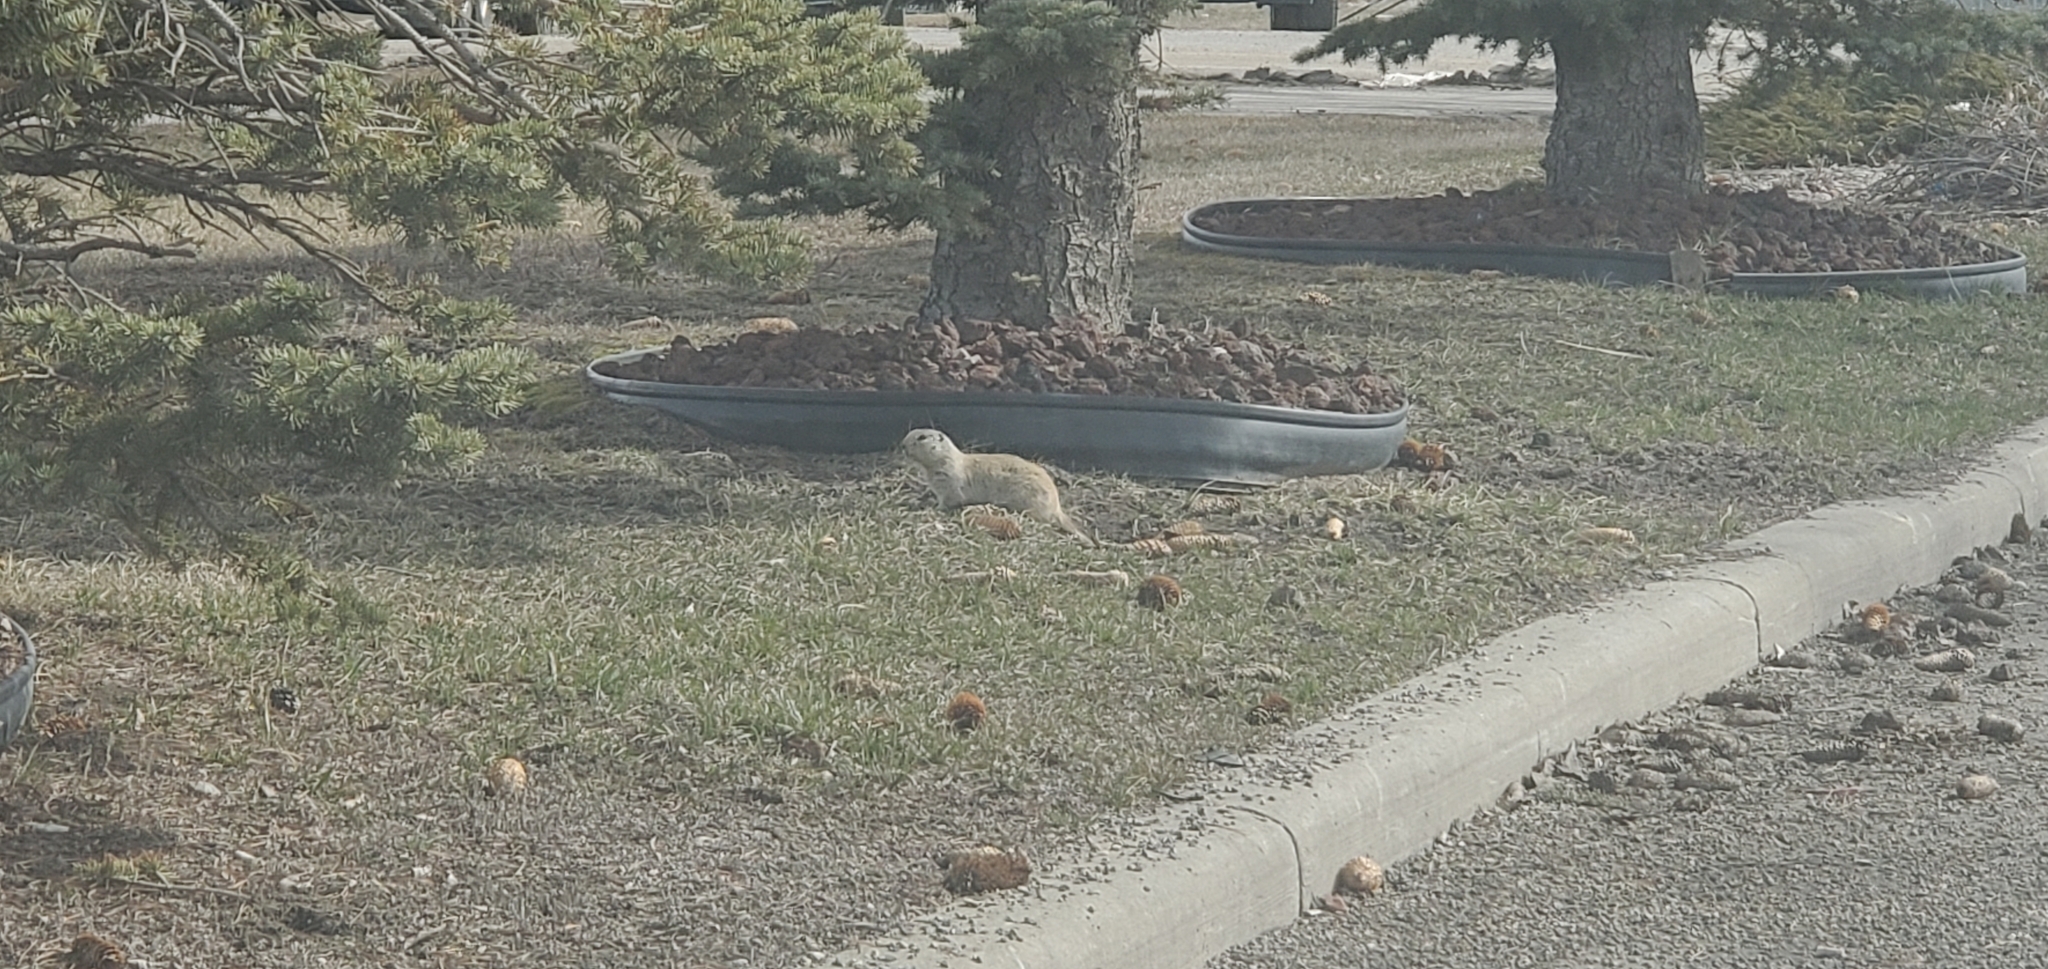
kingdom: Animalia
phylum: Chordata
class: Mammalia
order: Rodentia
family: Sciuridae
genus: Urocitellus
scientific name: Urocitellus richardsonii
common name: Richardson's ground squirrel
